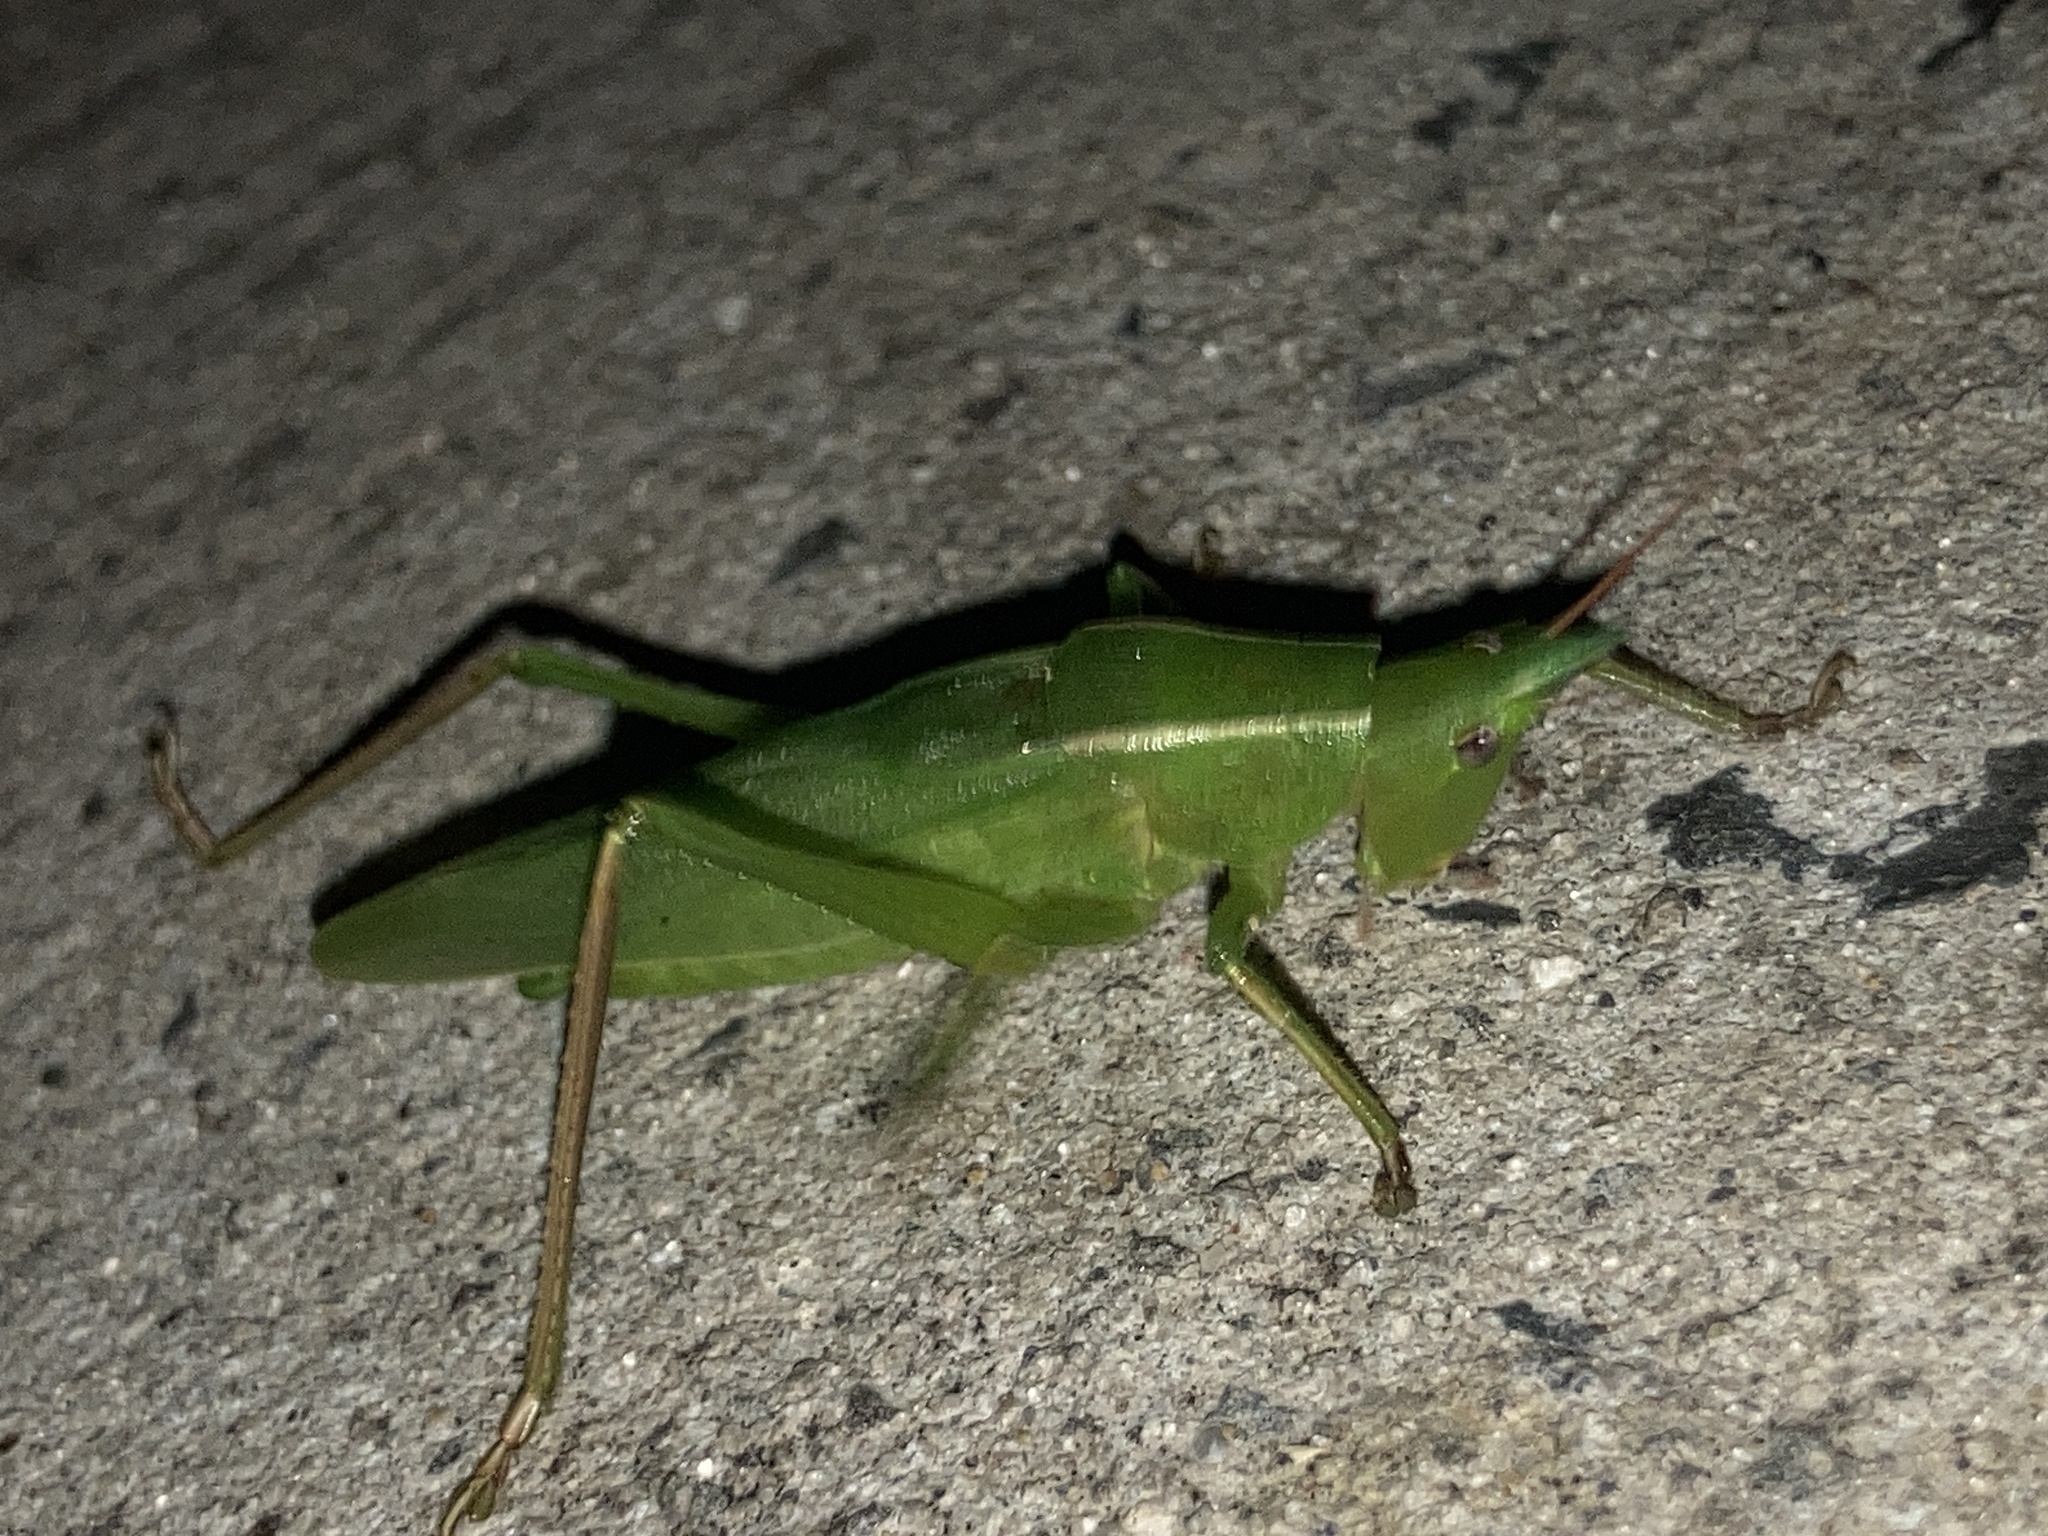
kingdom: Animalia
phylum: Arthropoda
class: Insecta
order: Orthoptera
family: Tettigoniidae
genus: Pseudorhynchus
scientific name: Pseudorhynchus mimeticus
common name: Mimicking snout-nosed katydid
